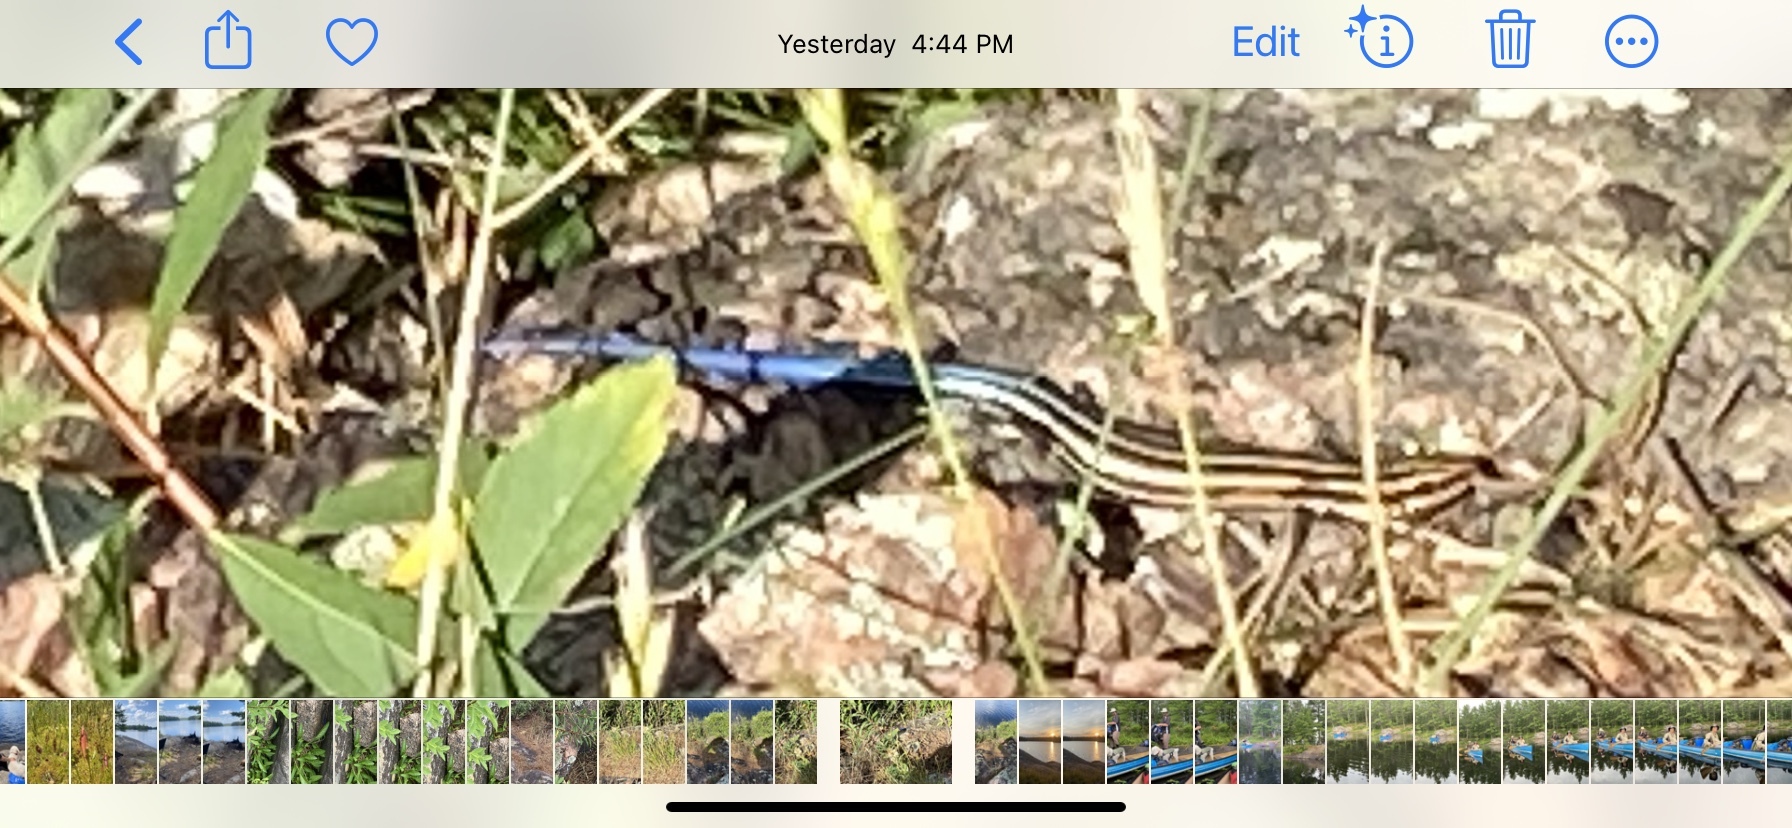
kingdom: Animalia
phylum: Chordata
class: Squamata
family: Scincidae
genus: Plestiodon
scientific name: Plestiodon fasciatus
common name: Five-lined skink
